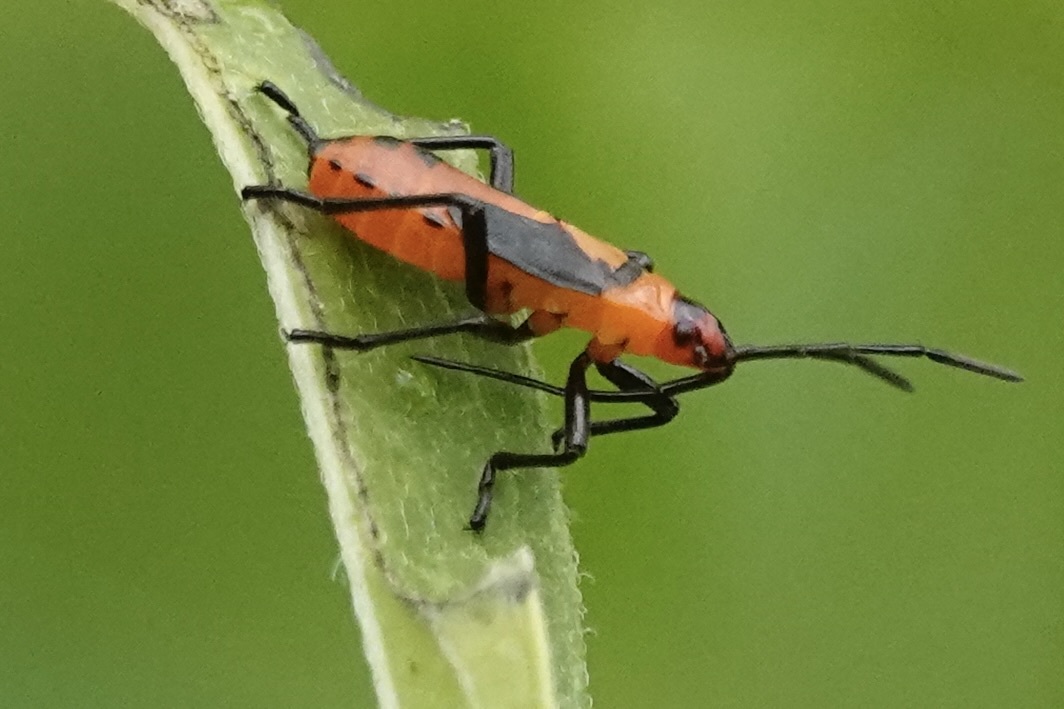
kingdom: Animalia
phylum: Arthropoda
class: Insecta
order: Hemiptera
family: Lygaeidae
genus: Oncopeltus
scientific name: Oncopeltus fasciatus
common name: Large milkweed bug
